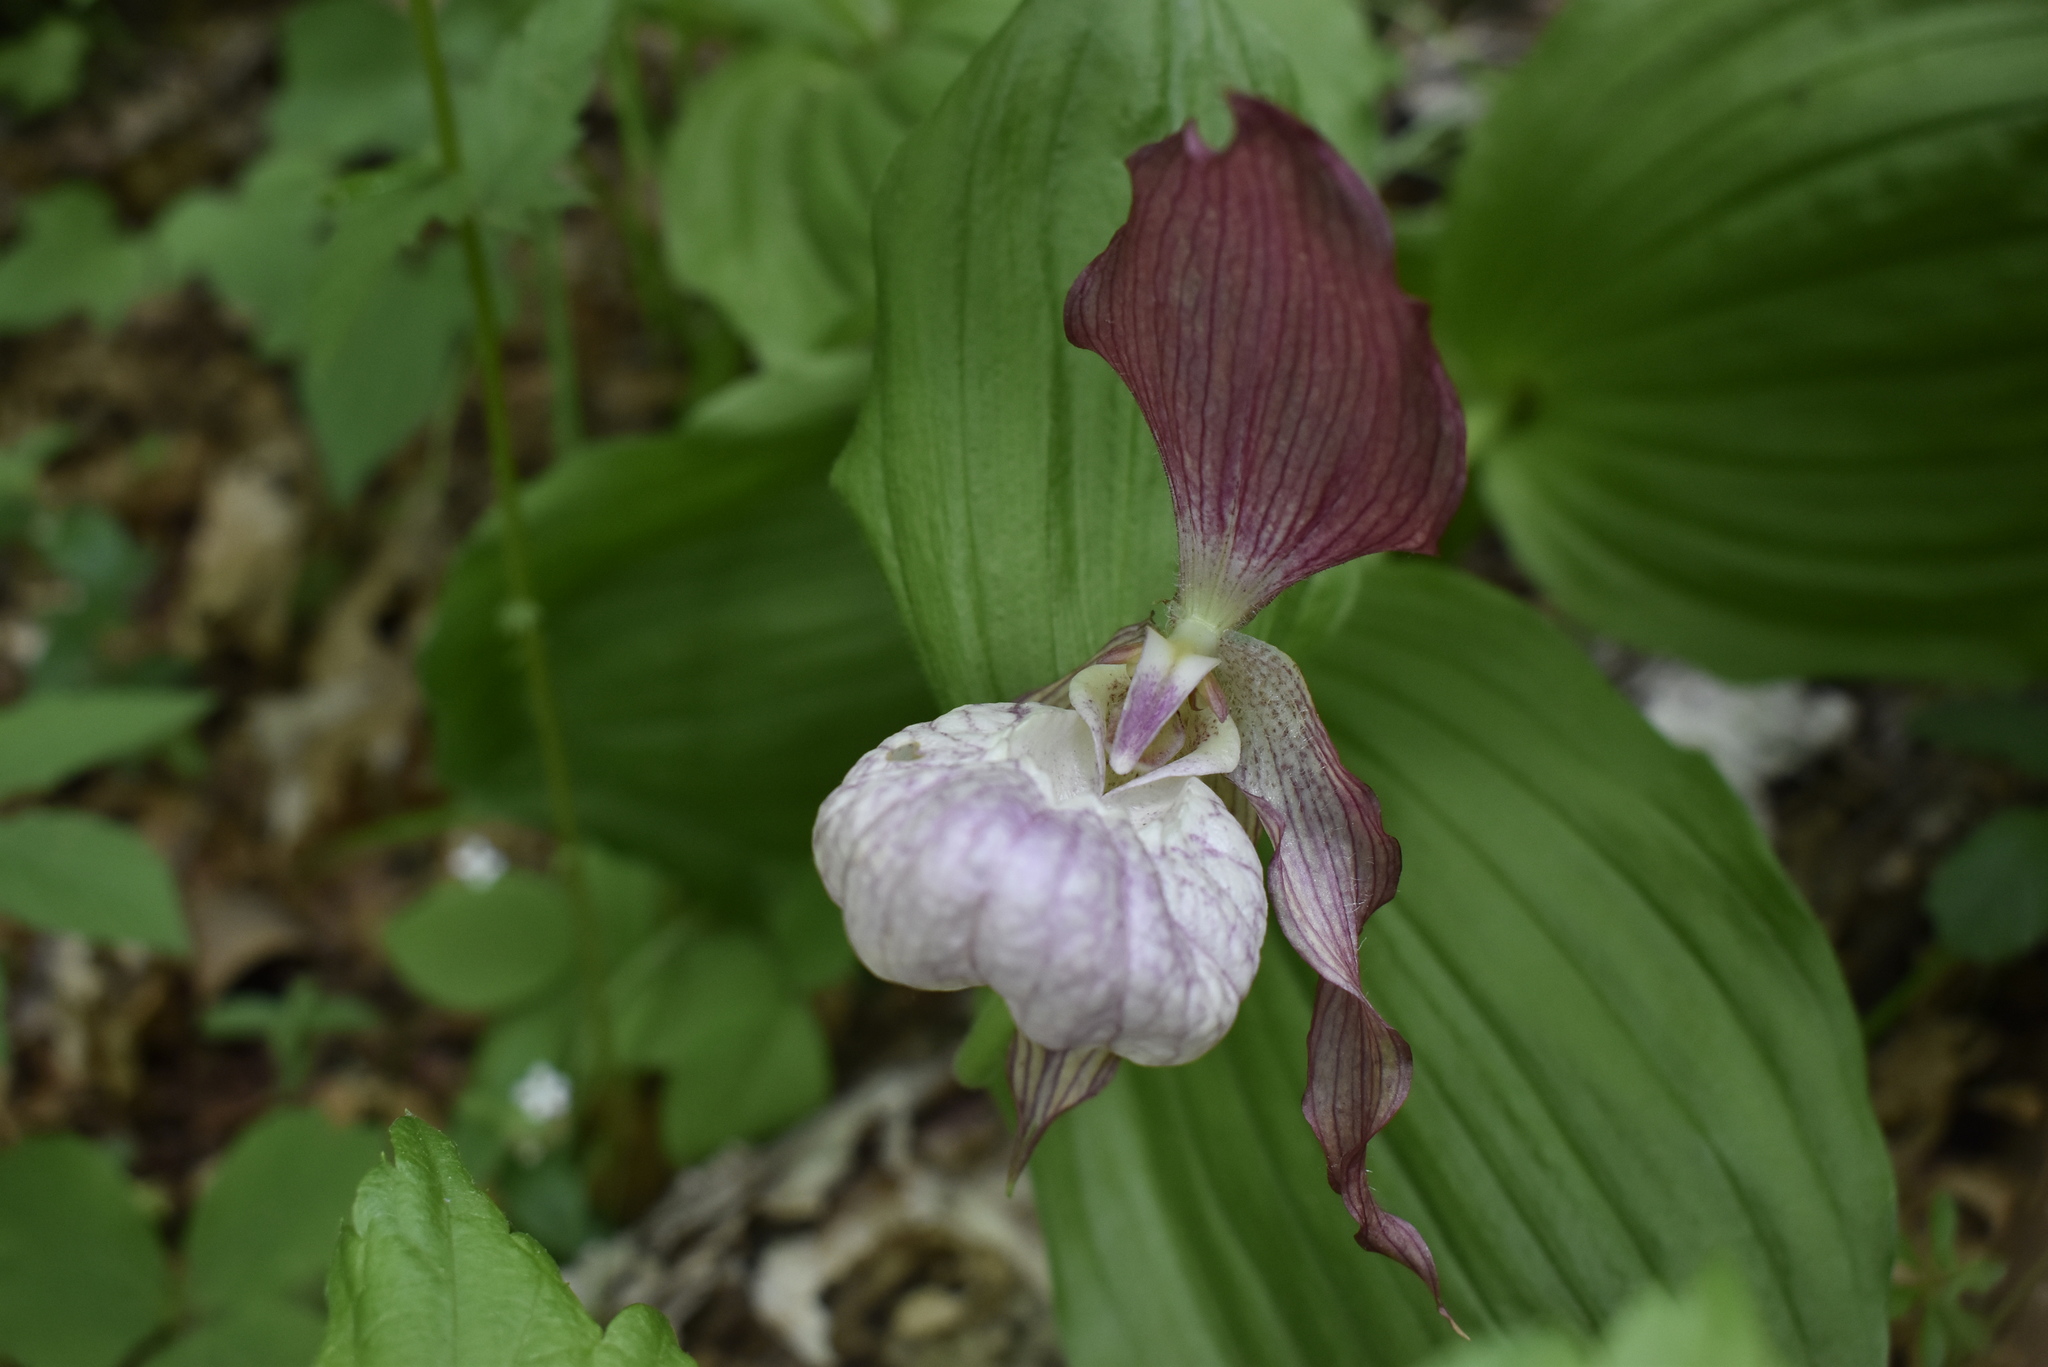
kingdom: Plantae
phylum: Tracheophyta
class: Liliopsida
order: Asparagales
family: Orchidaceae
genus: Cypripedium
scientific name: Cypripedium ventricosum
